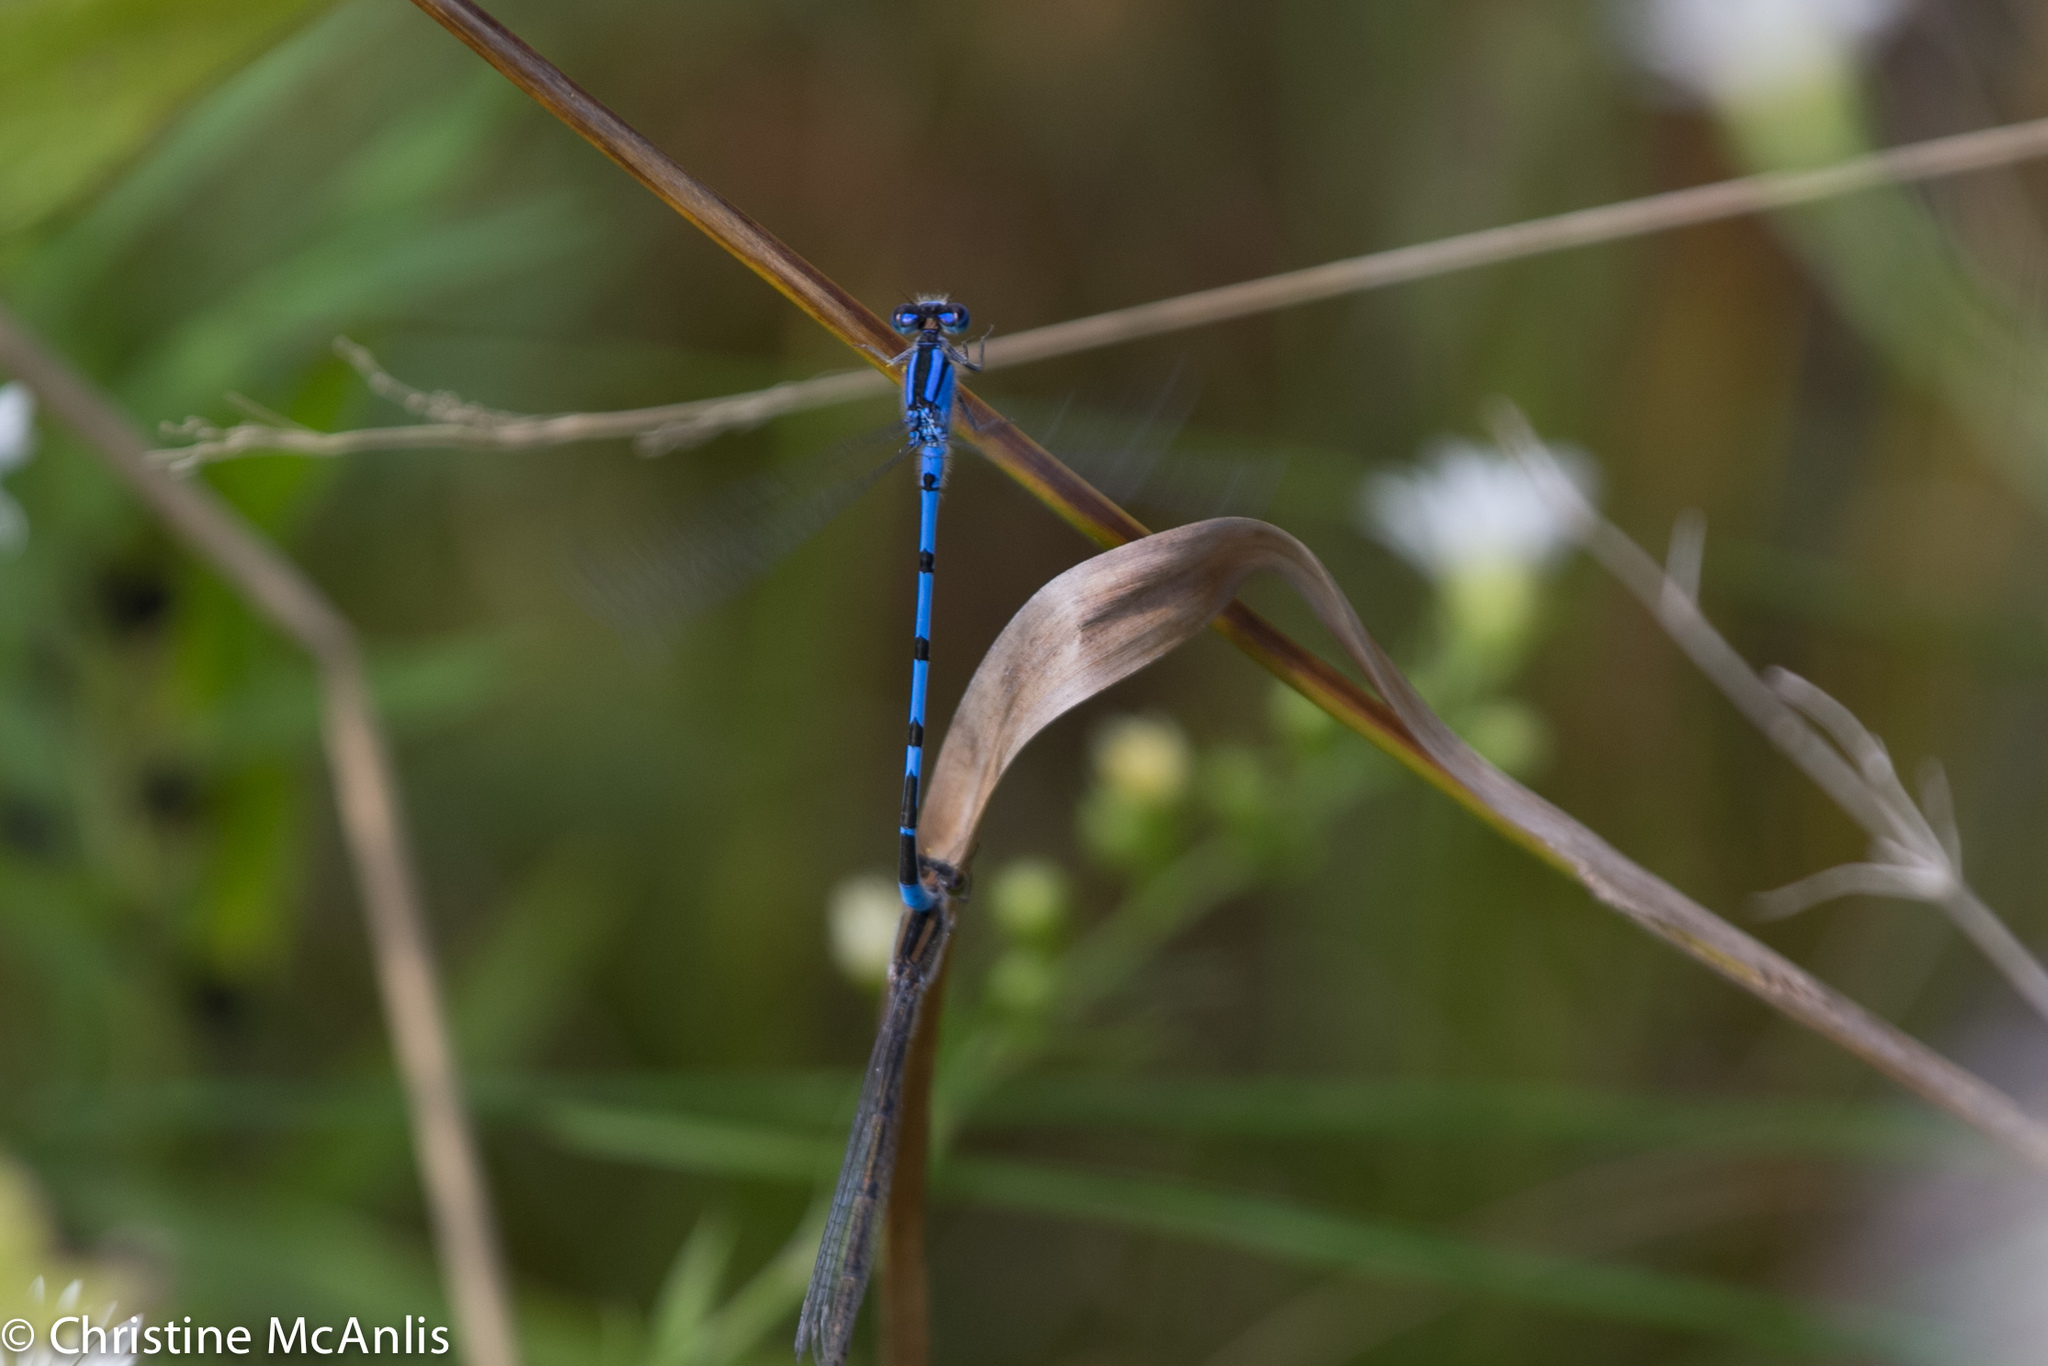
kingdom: Animalia
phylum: Arthropoda
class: Insecta
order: Odonata
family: Coenagrionidae
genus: Enallagma
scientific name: Enallagma civile
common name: Damselfly
